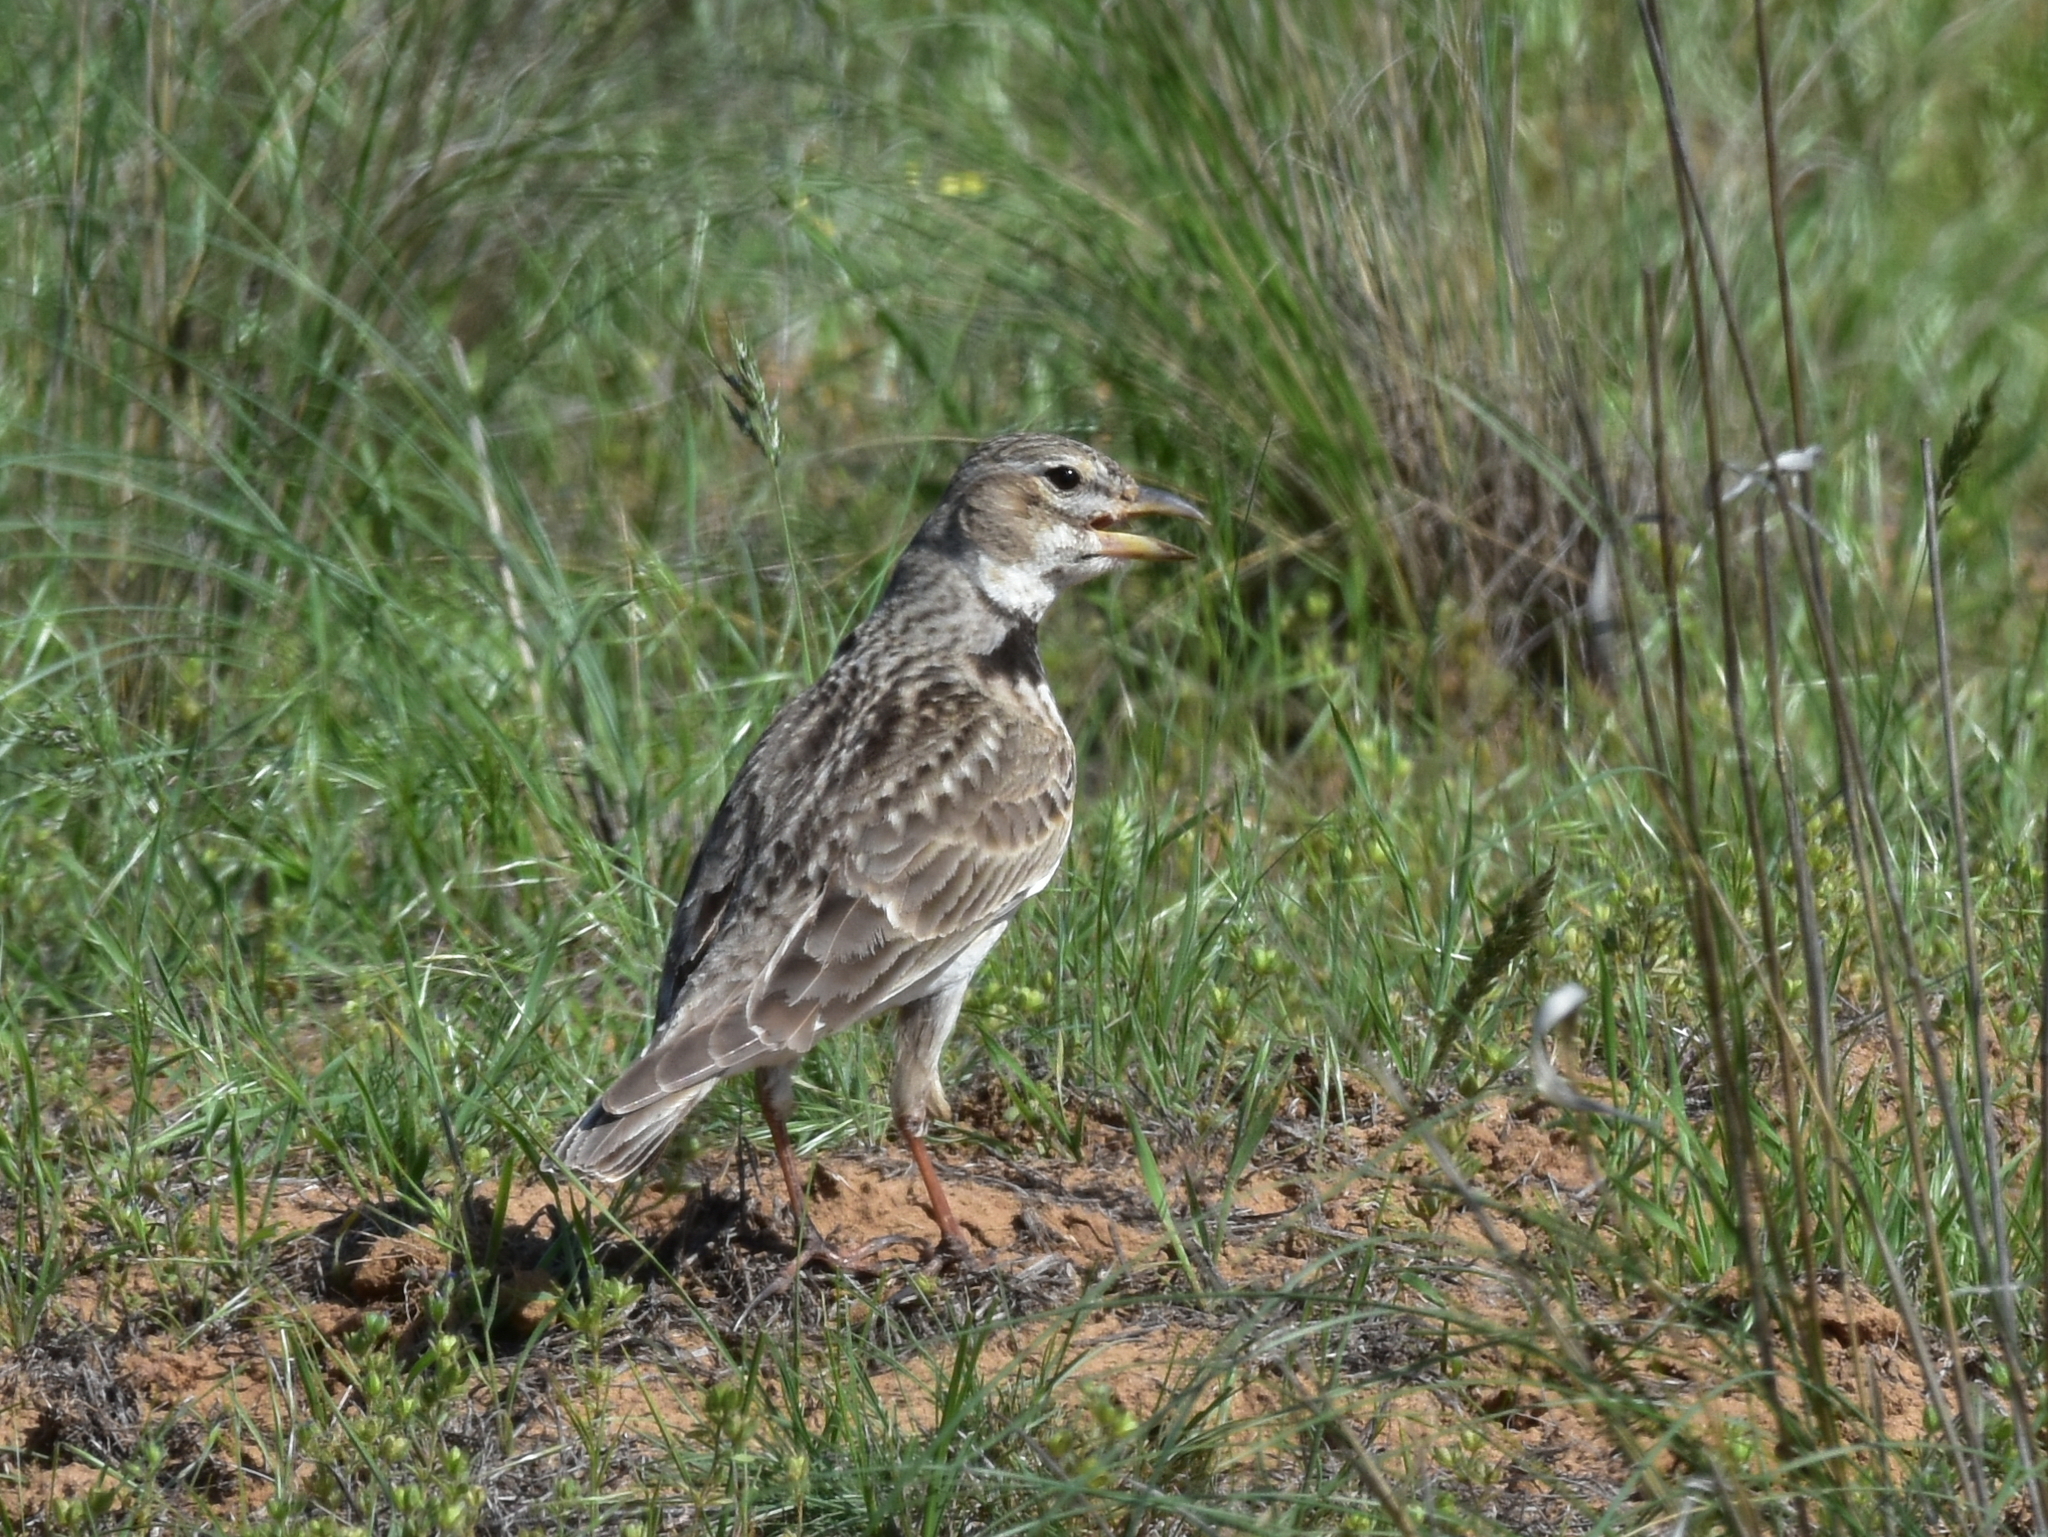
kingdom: Animalia
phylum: Chordata
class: Aves
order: Passeriformes
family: Alaudidae
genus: Melanocorypha
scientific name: Melanocorypha calandra
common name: Calandra lark
